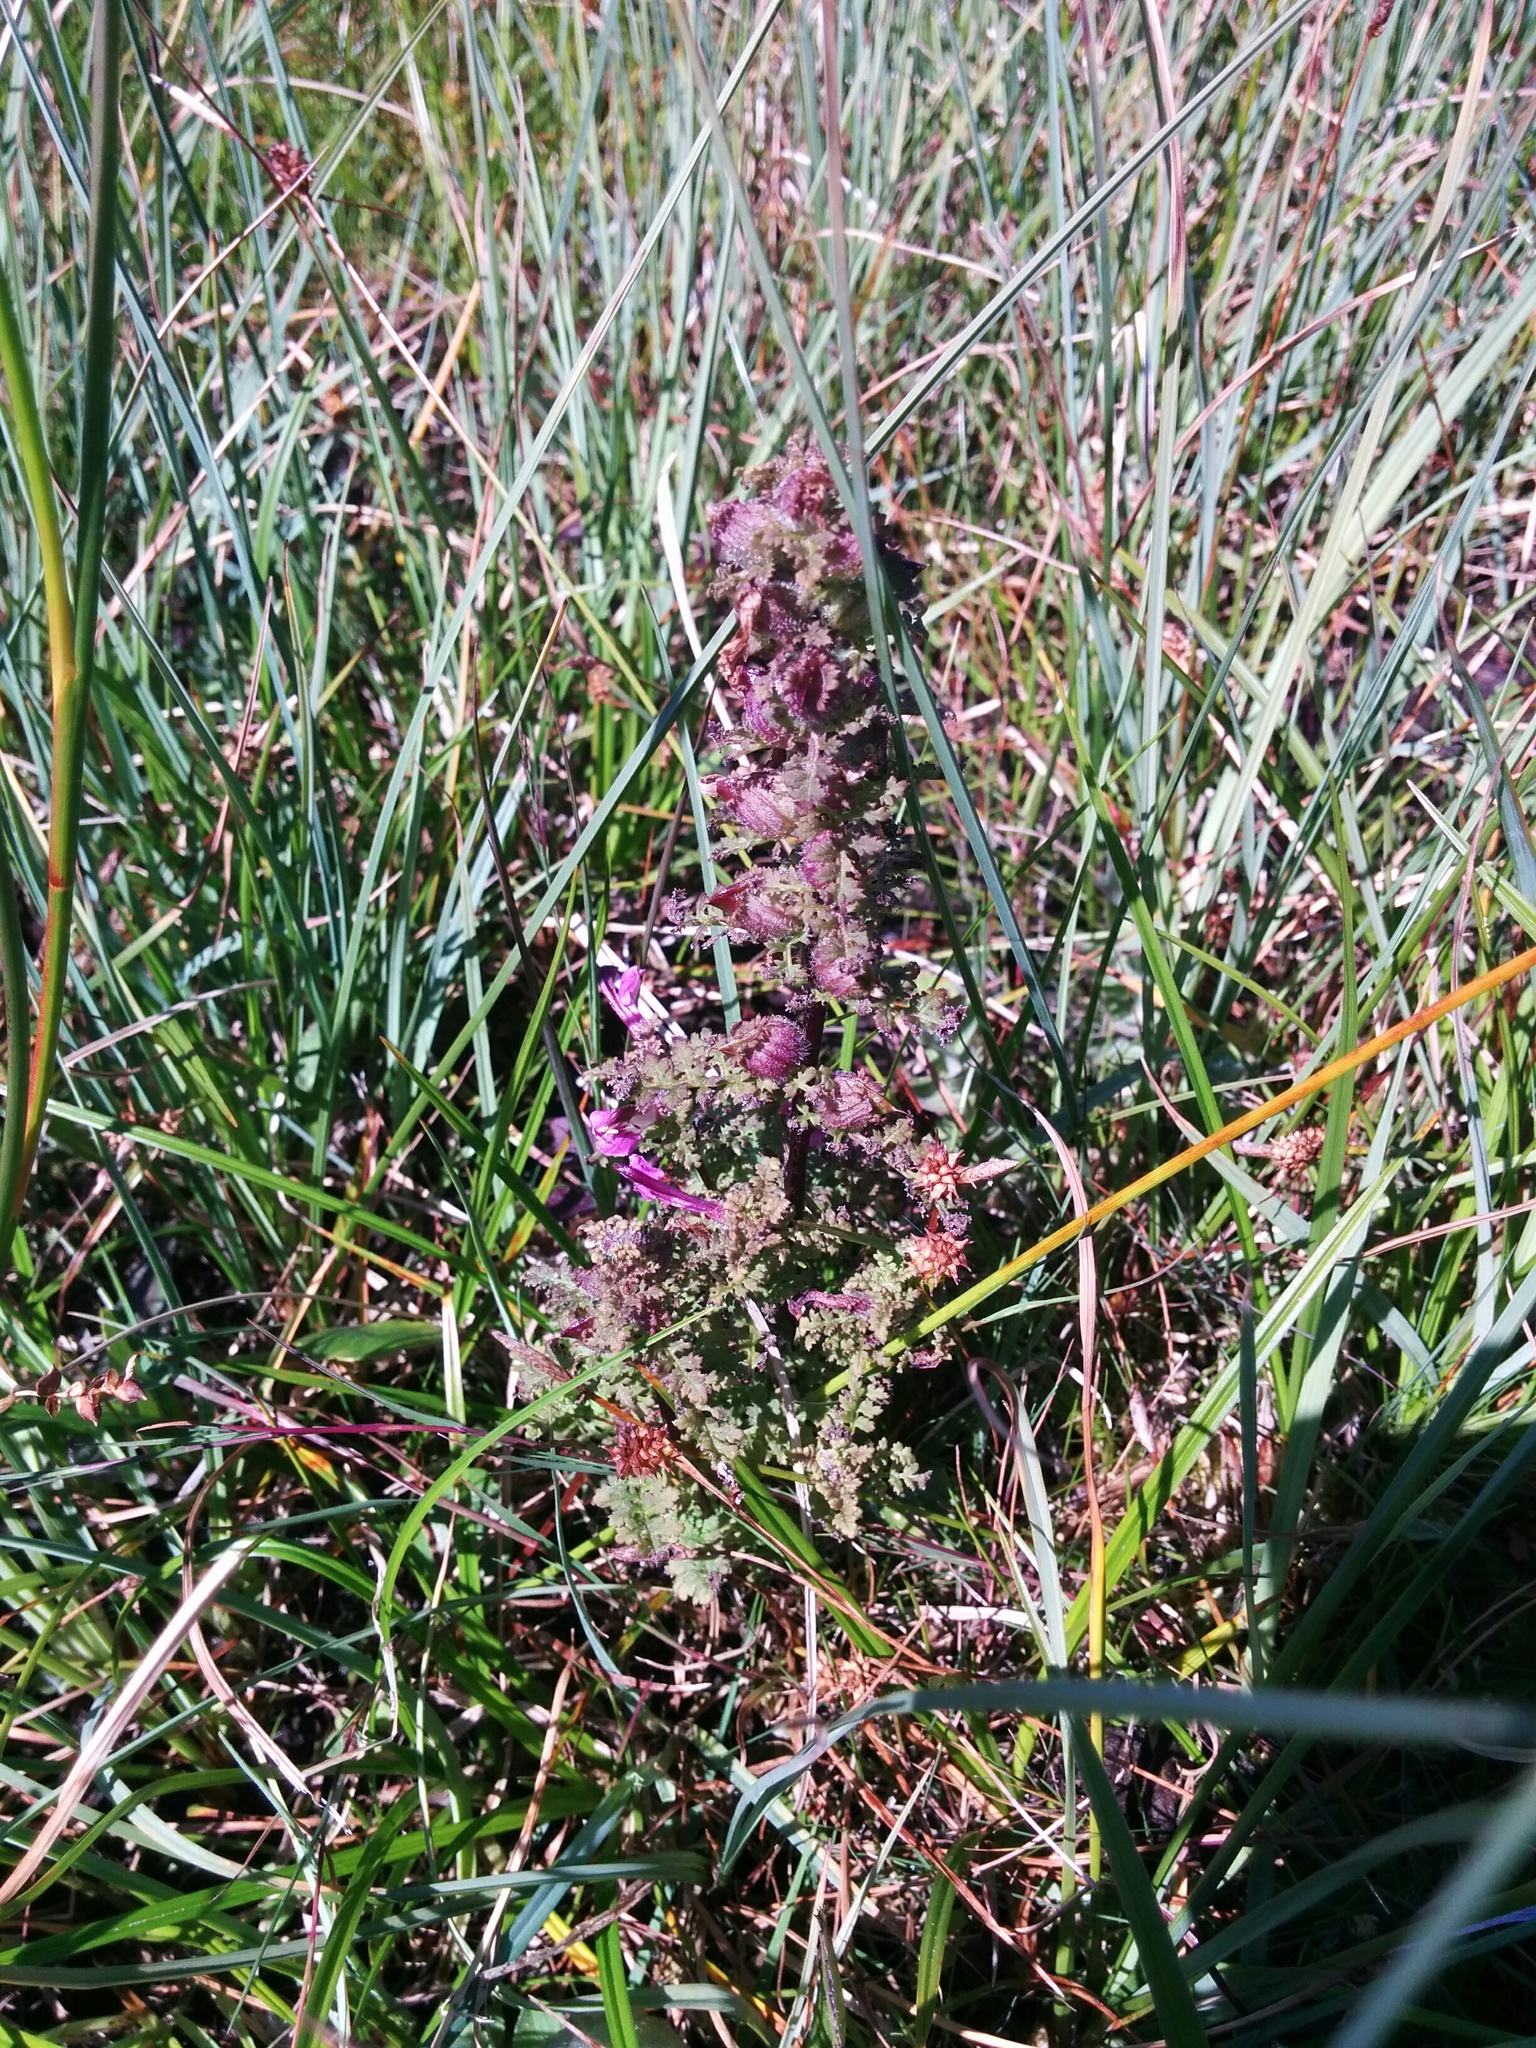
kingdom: Plantae
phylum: Tracheophyta
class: Magnoliopsida
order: Lamiales
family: Orobanchaceae
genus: Pedicularis
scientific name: Pedicularis palustris
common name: Marsh lousewort
